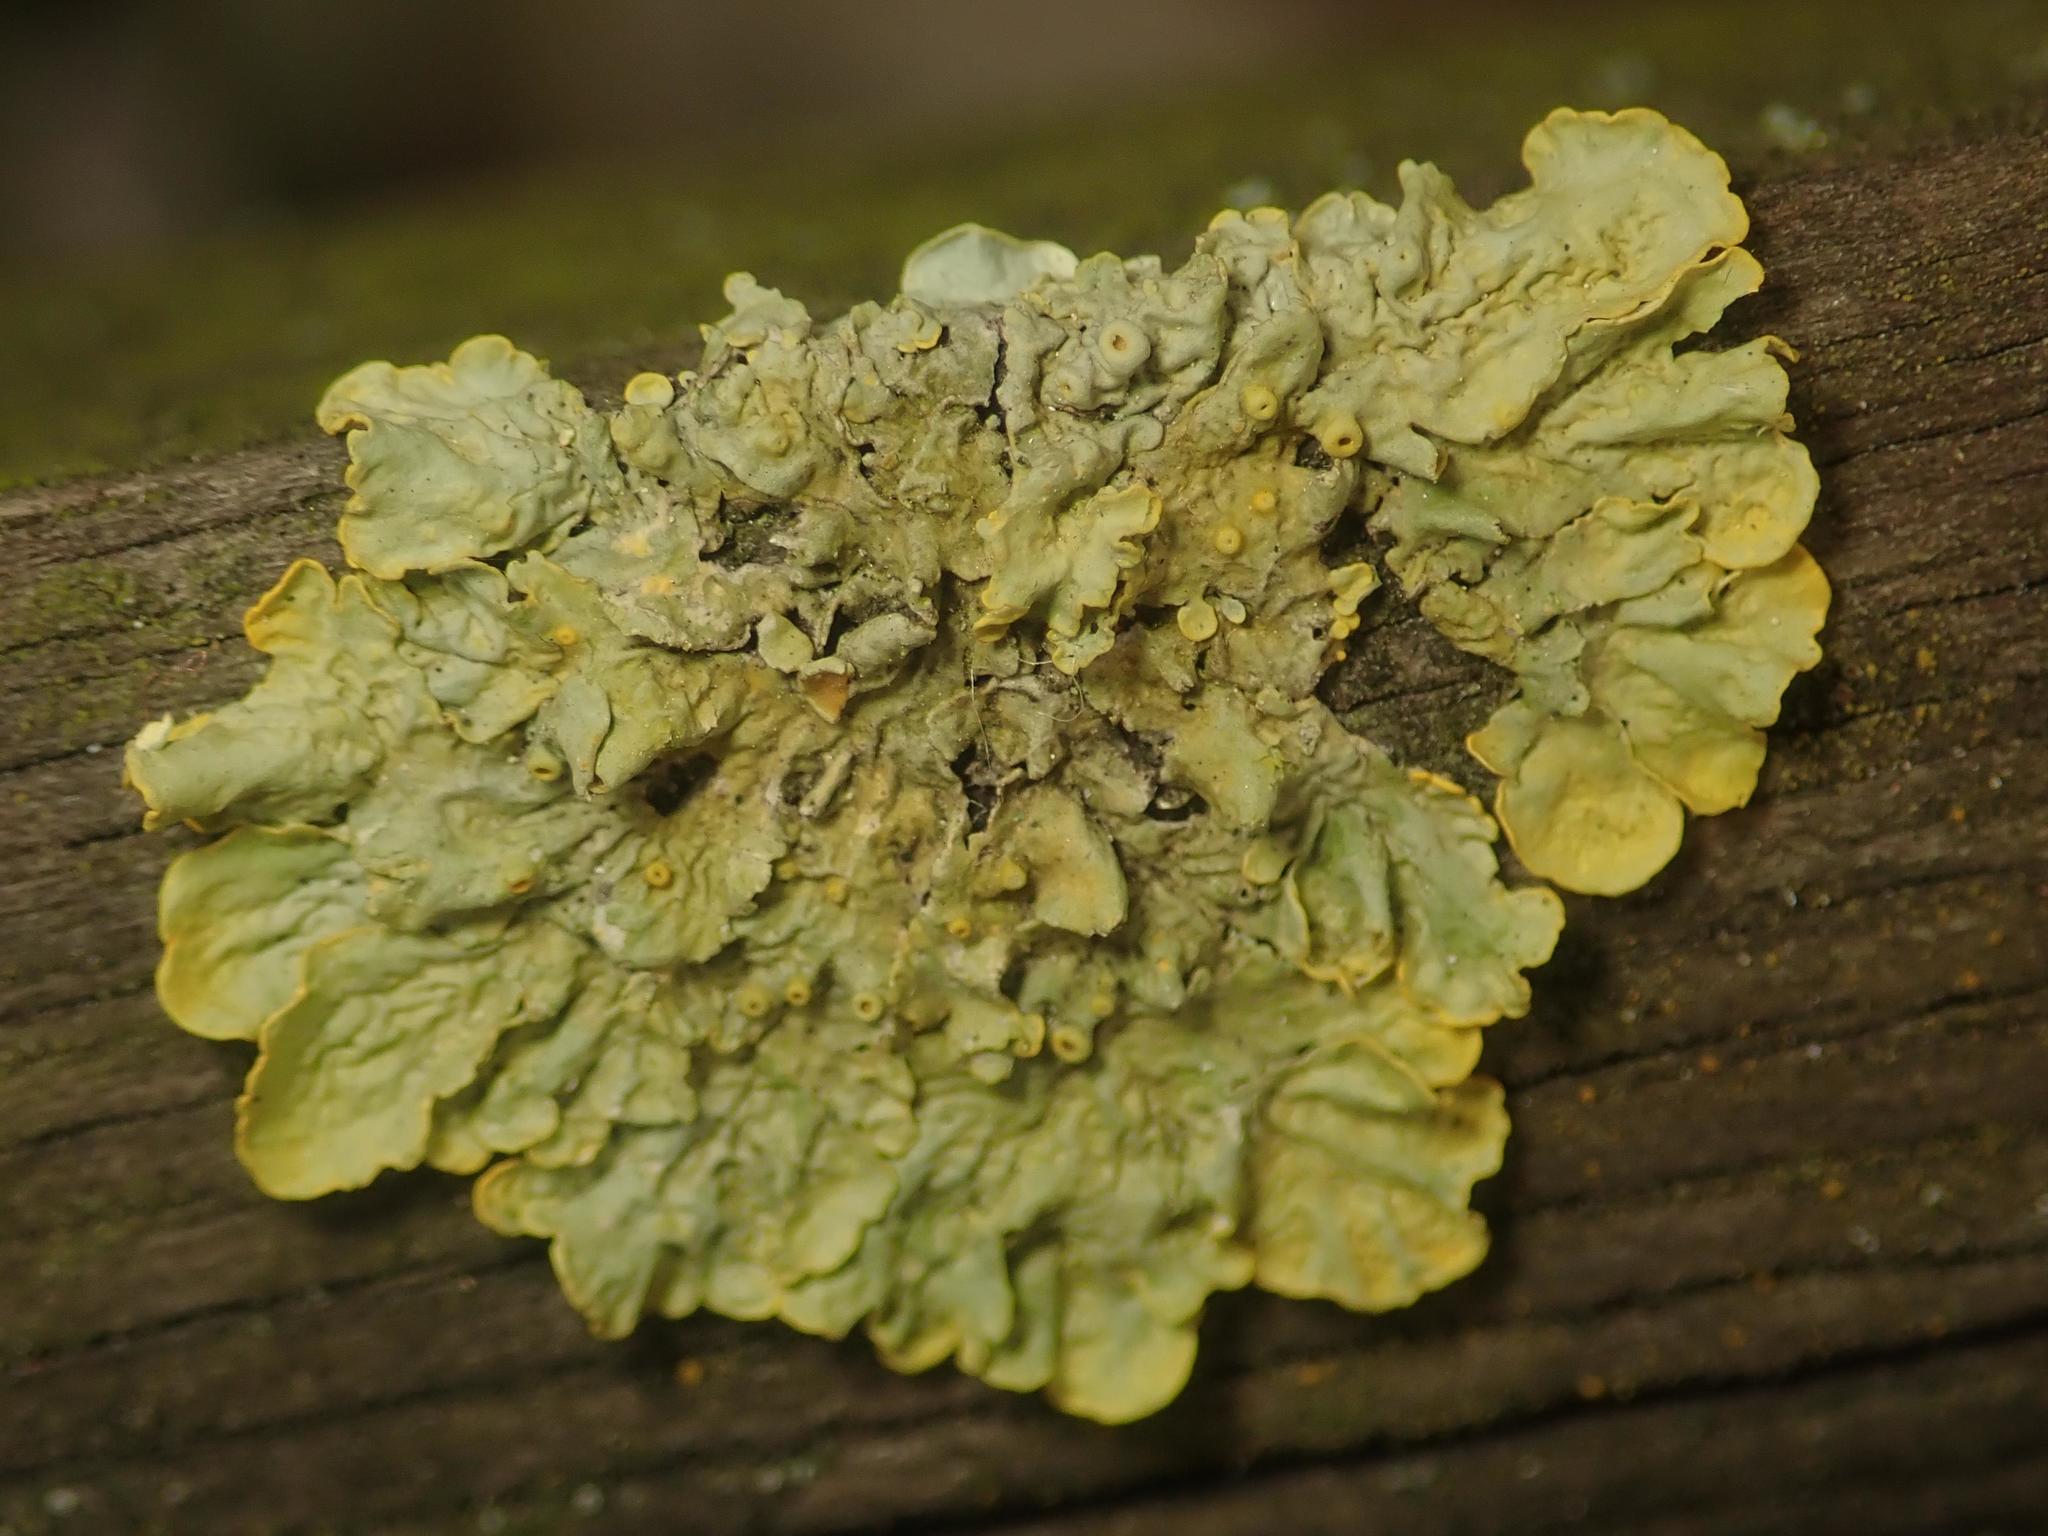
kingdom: Fungi
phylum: Ascomycota
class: Lecanoromycetes
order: Teloschistales
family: Teloschistaceae
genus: Xanthoria
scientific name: Xanthoria parietina
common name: Common orange lichen
